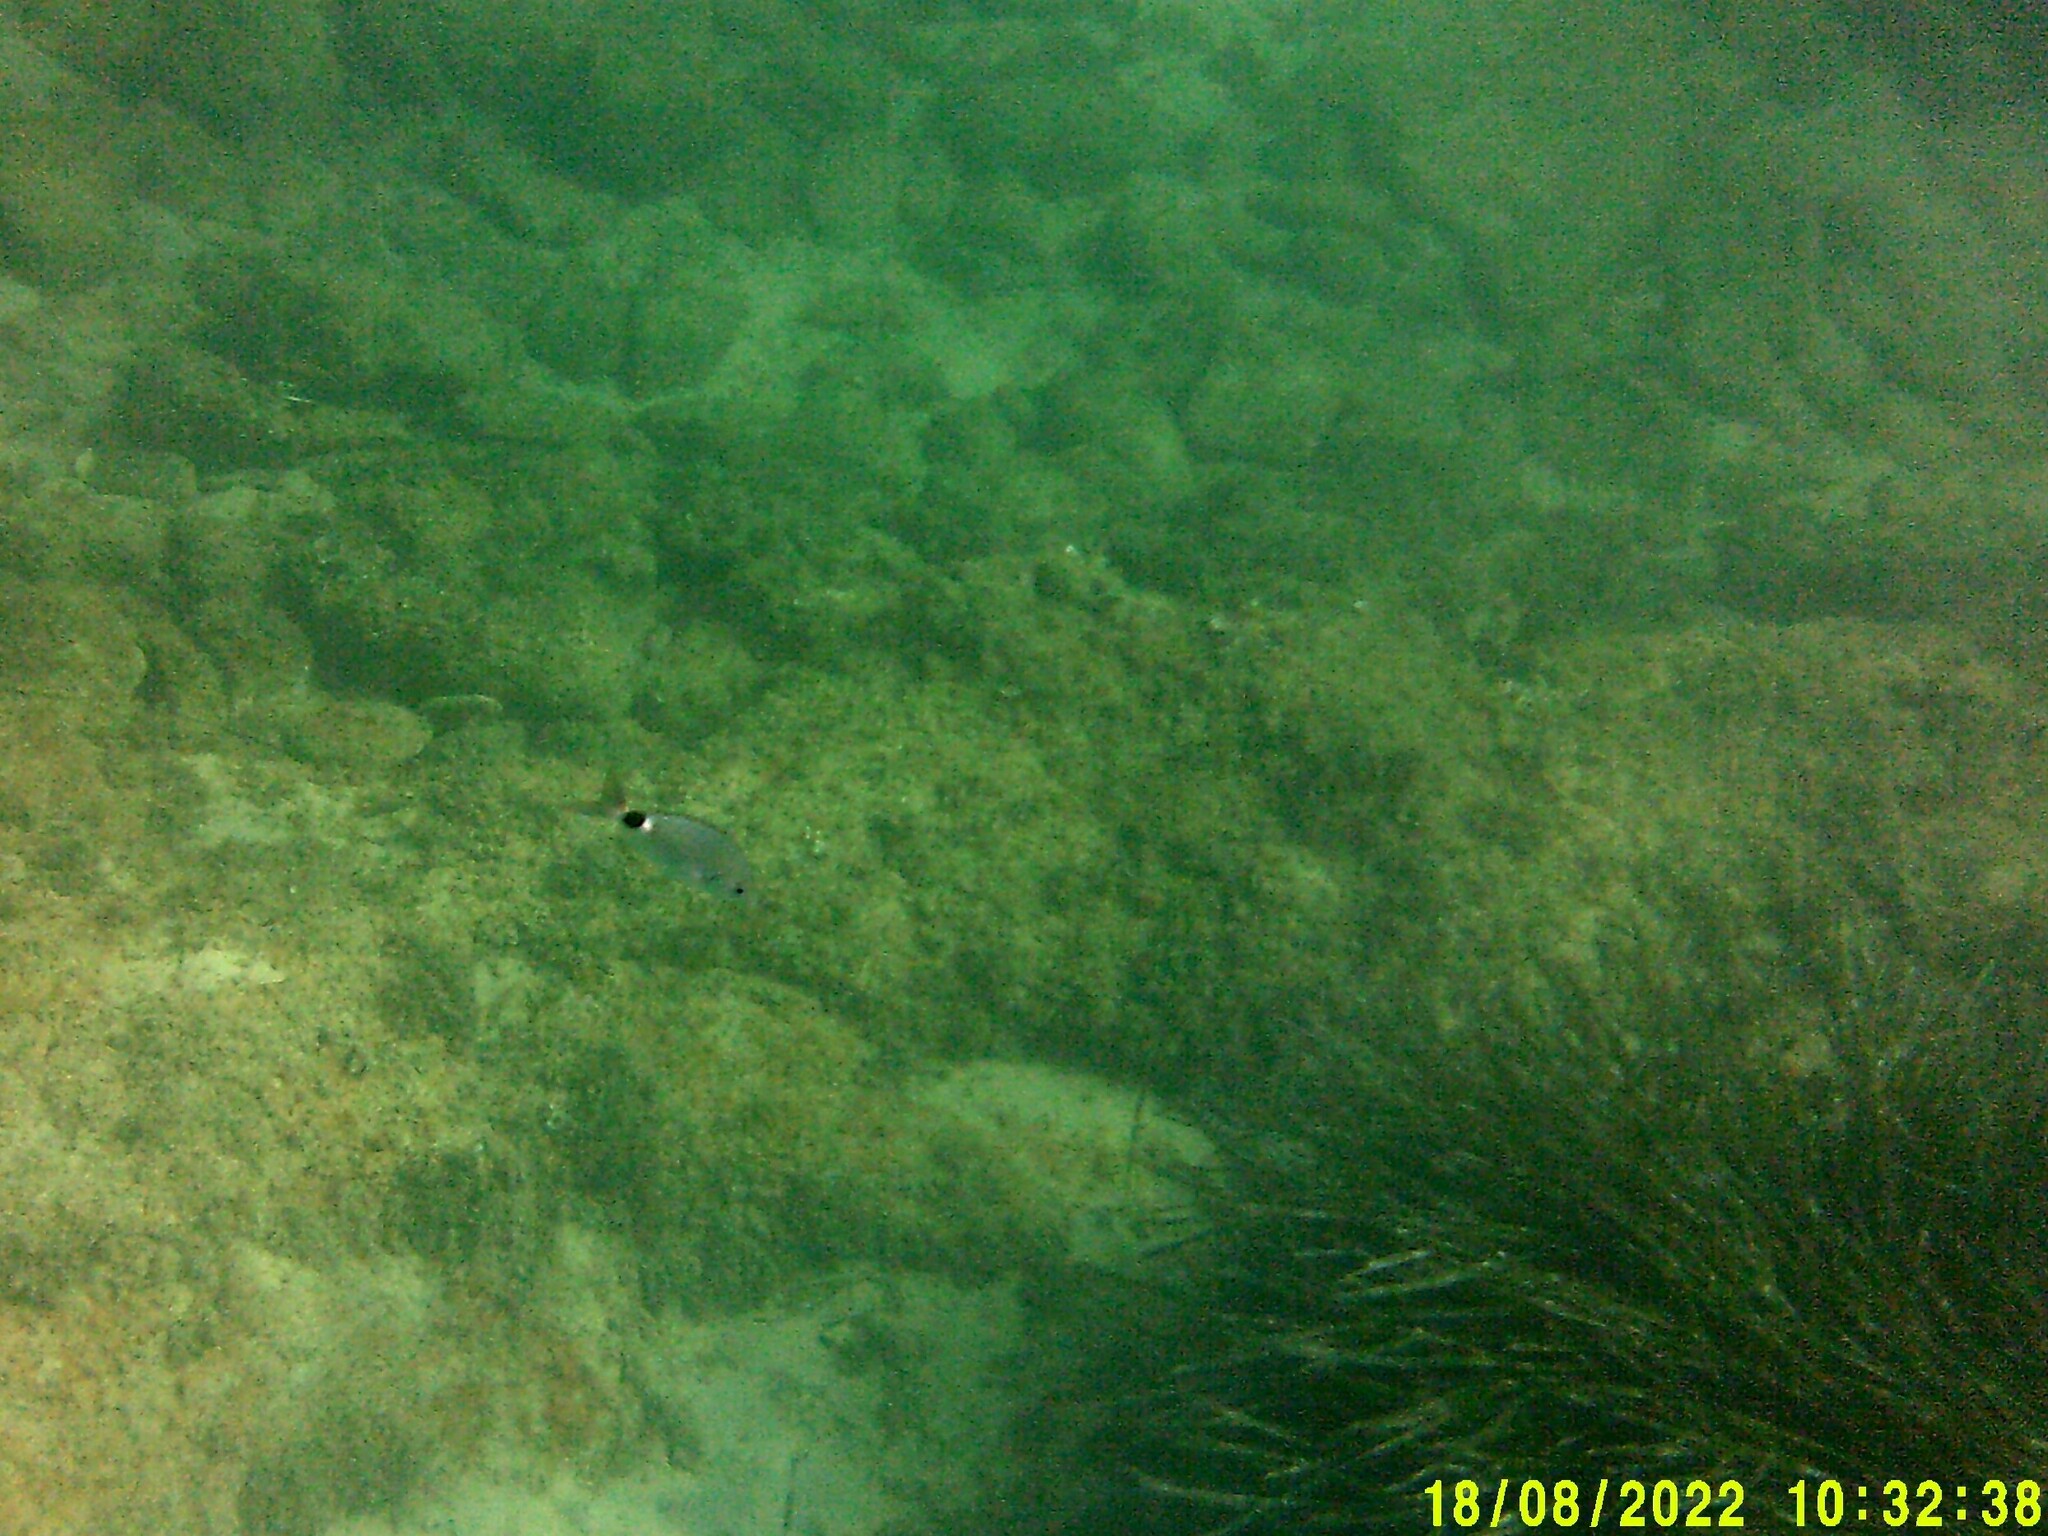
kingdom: Animalia
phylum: Chordata
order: Perciformes
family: Sparidae
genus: Oblada
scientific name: Oblada melanura
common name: Saddled seabream
